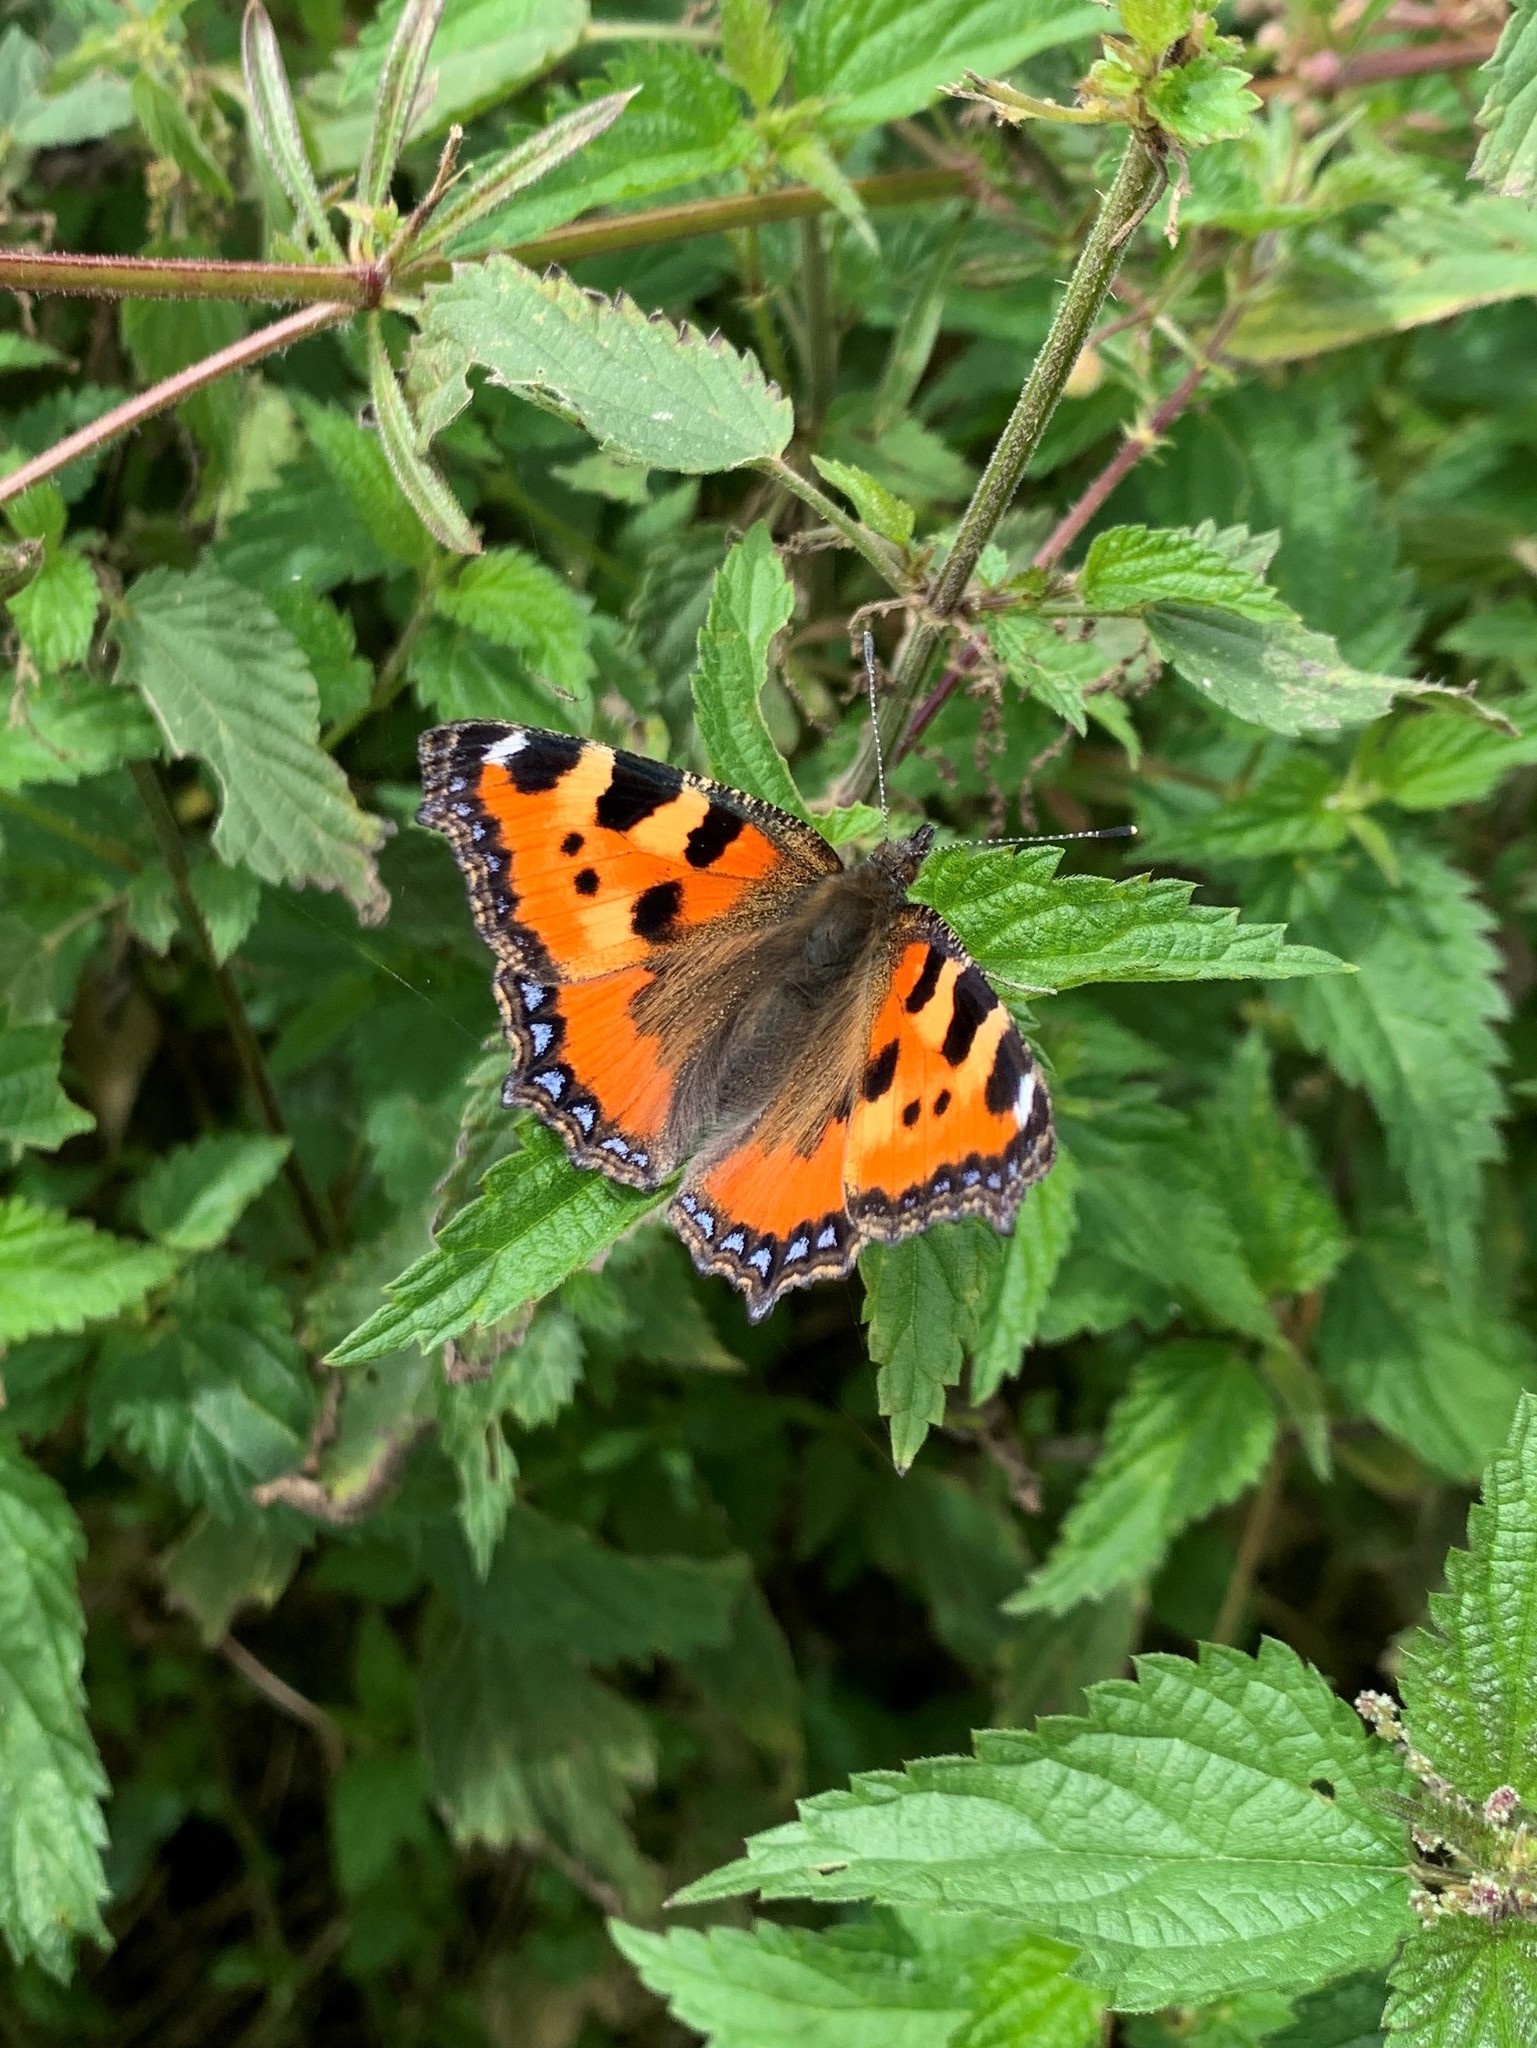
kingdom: Animalia
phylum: Arthropoda
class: Insecta
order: Lepidoptera
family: Nymphalidae
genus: Aglais
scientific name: Aglais urticae
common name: Small tortoiseshell
